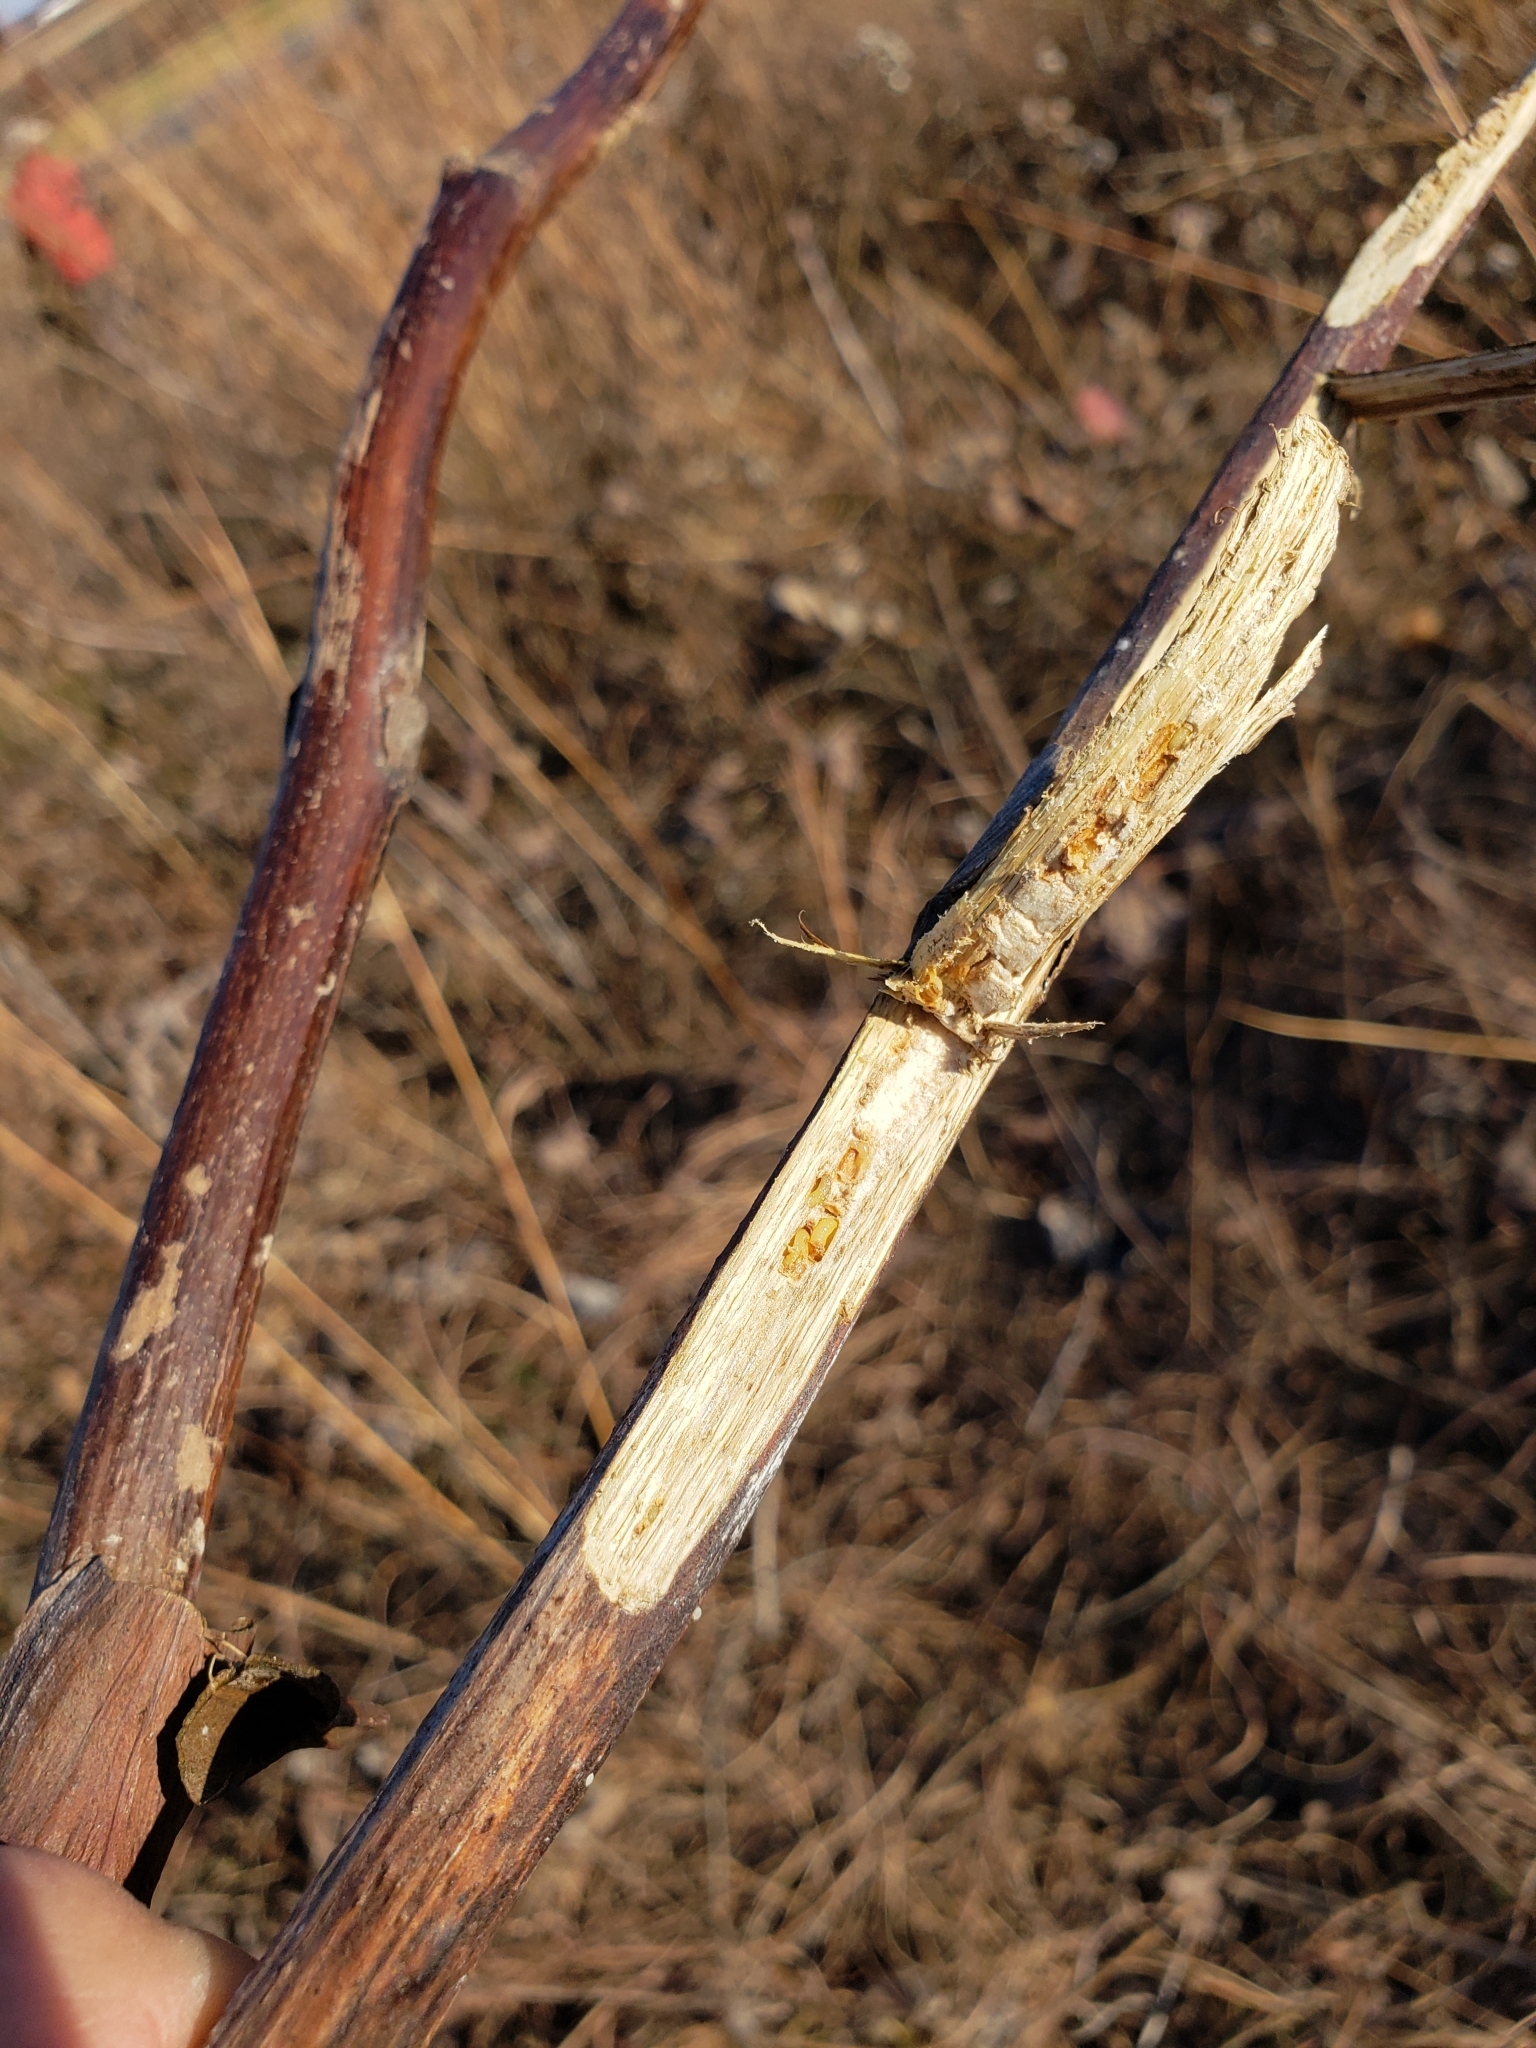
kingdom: Animalia
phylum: Arthropoda
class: Insecta
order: Hymenoptera
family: Cynipidae
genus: Antistrophus
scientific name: Antistrophus rufus
